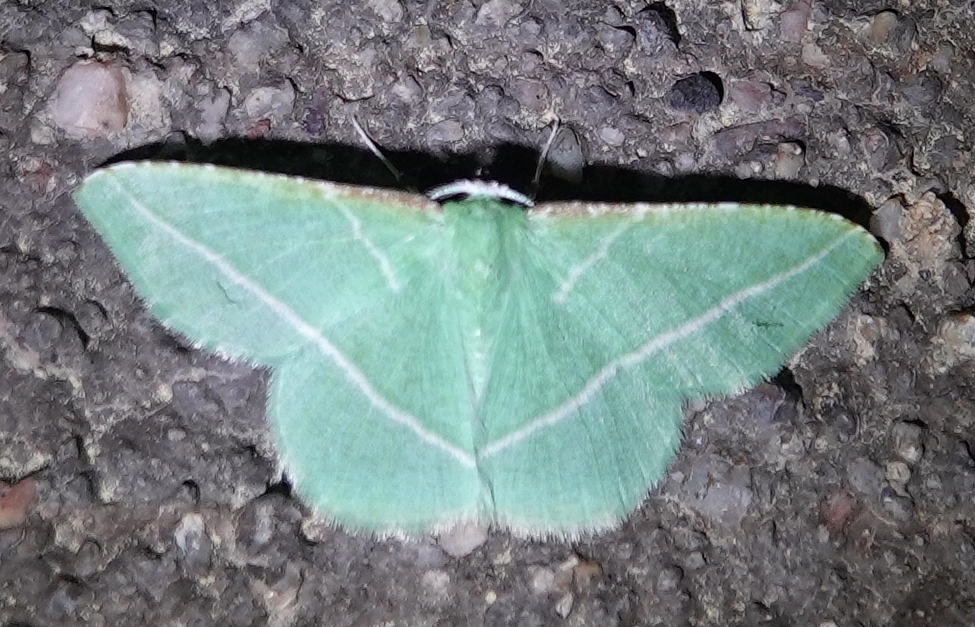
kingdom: Animalia
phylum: Arthropoda
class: Insecta
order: Lepidoptera
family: Geometridae
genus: Dichorda
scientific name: Dichorda rectaria
